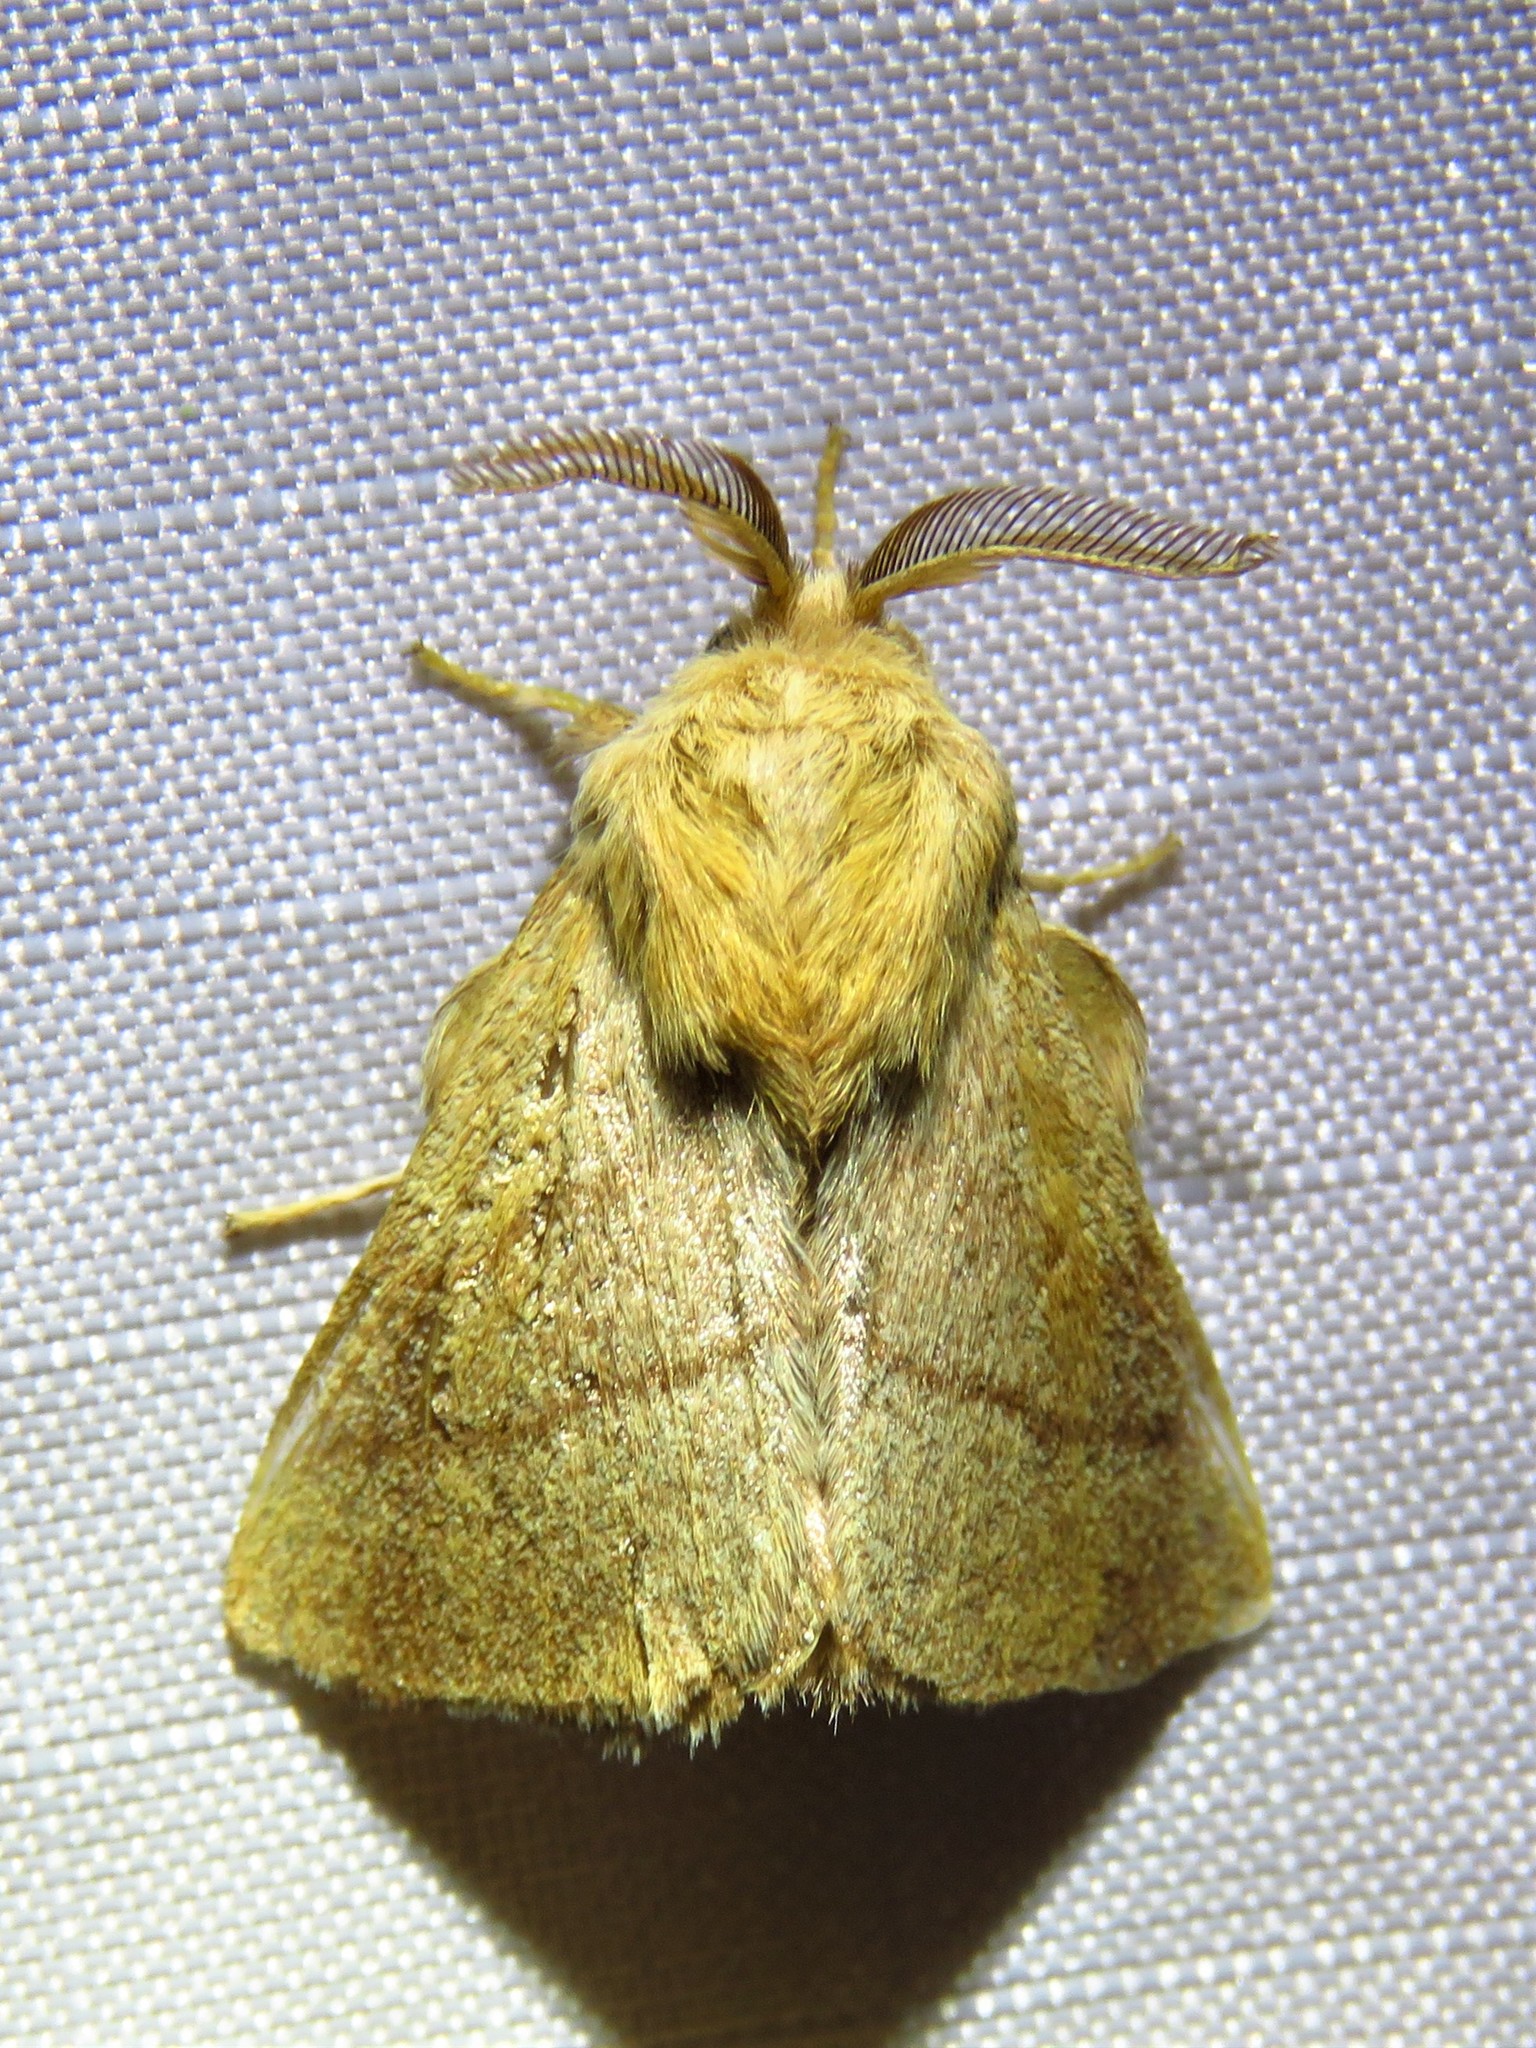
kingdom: Animalia
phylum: Arthropoda
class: Insecta
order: Lepidoptera
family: Lasiocampidae
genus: Malacosoma
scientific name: Malacosoma disstria
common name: Forest tent caterpillar
